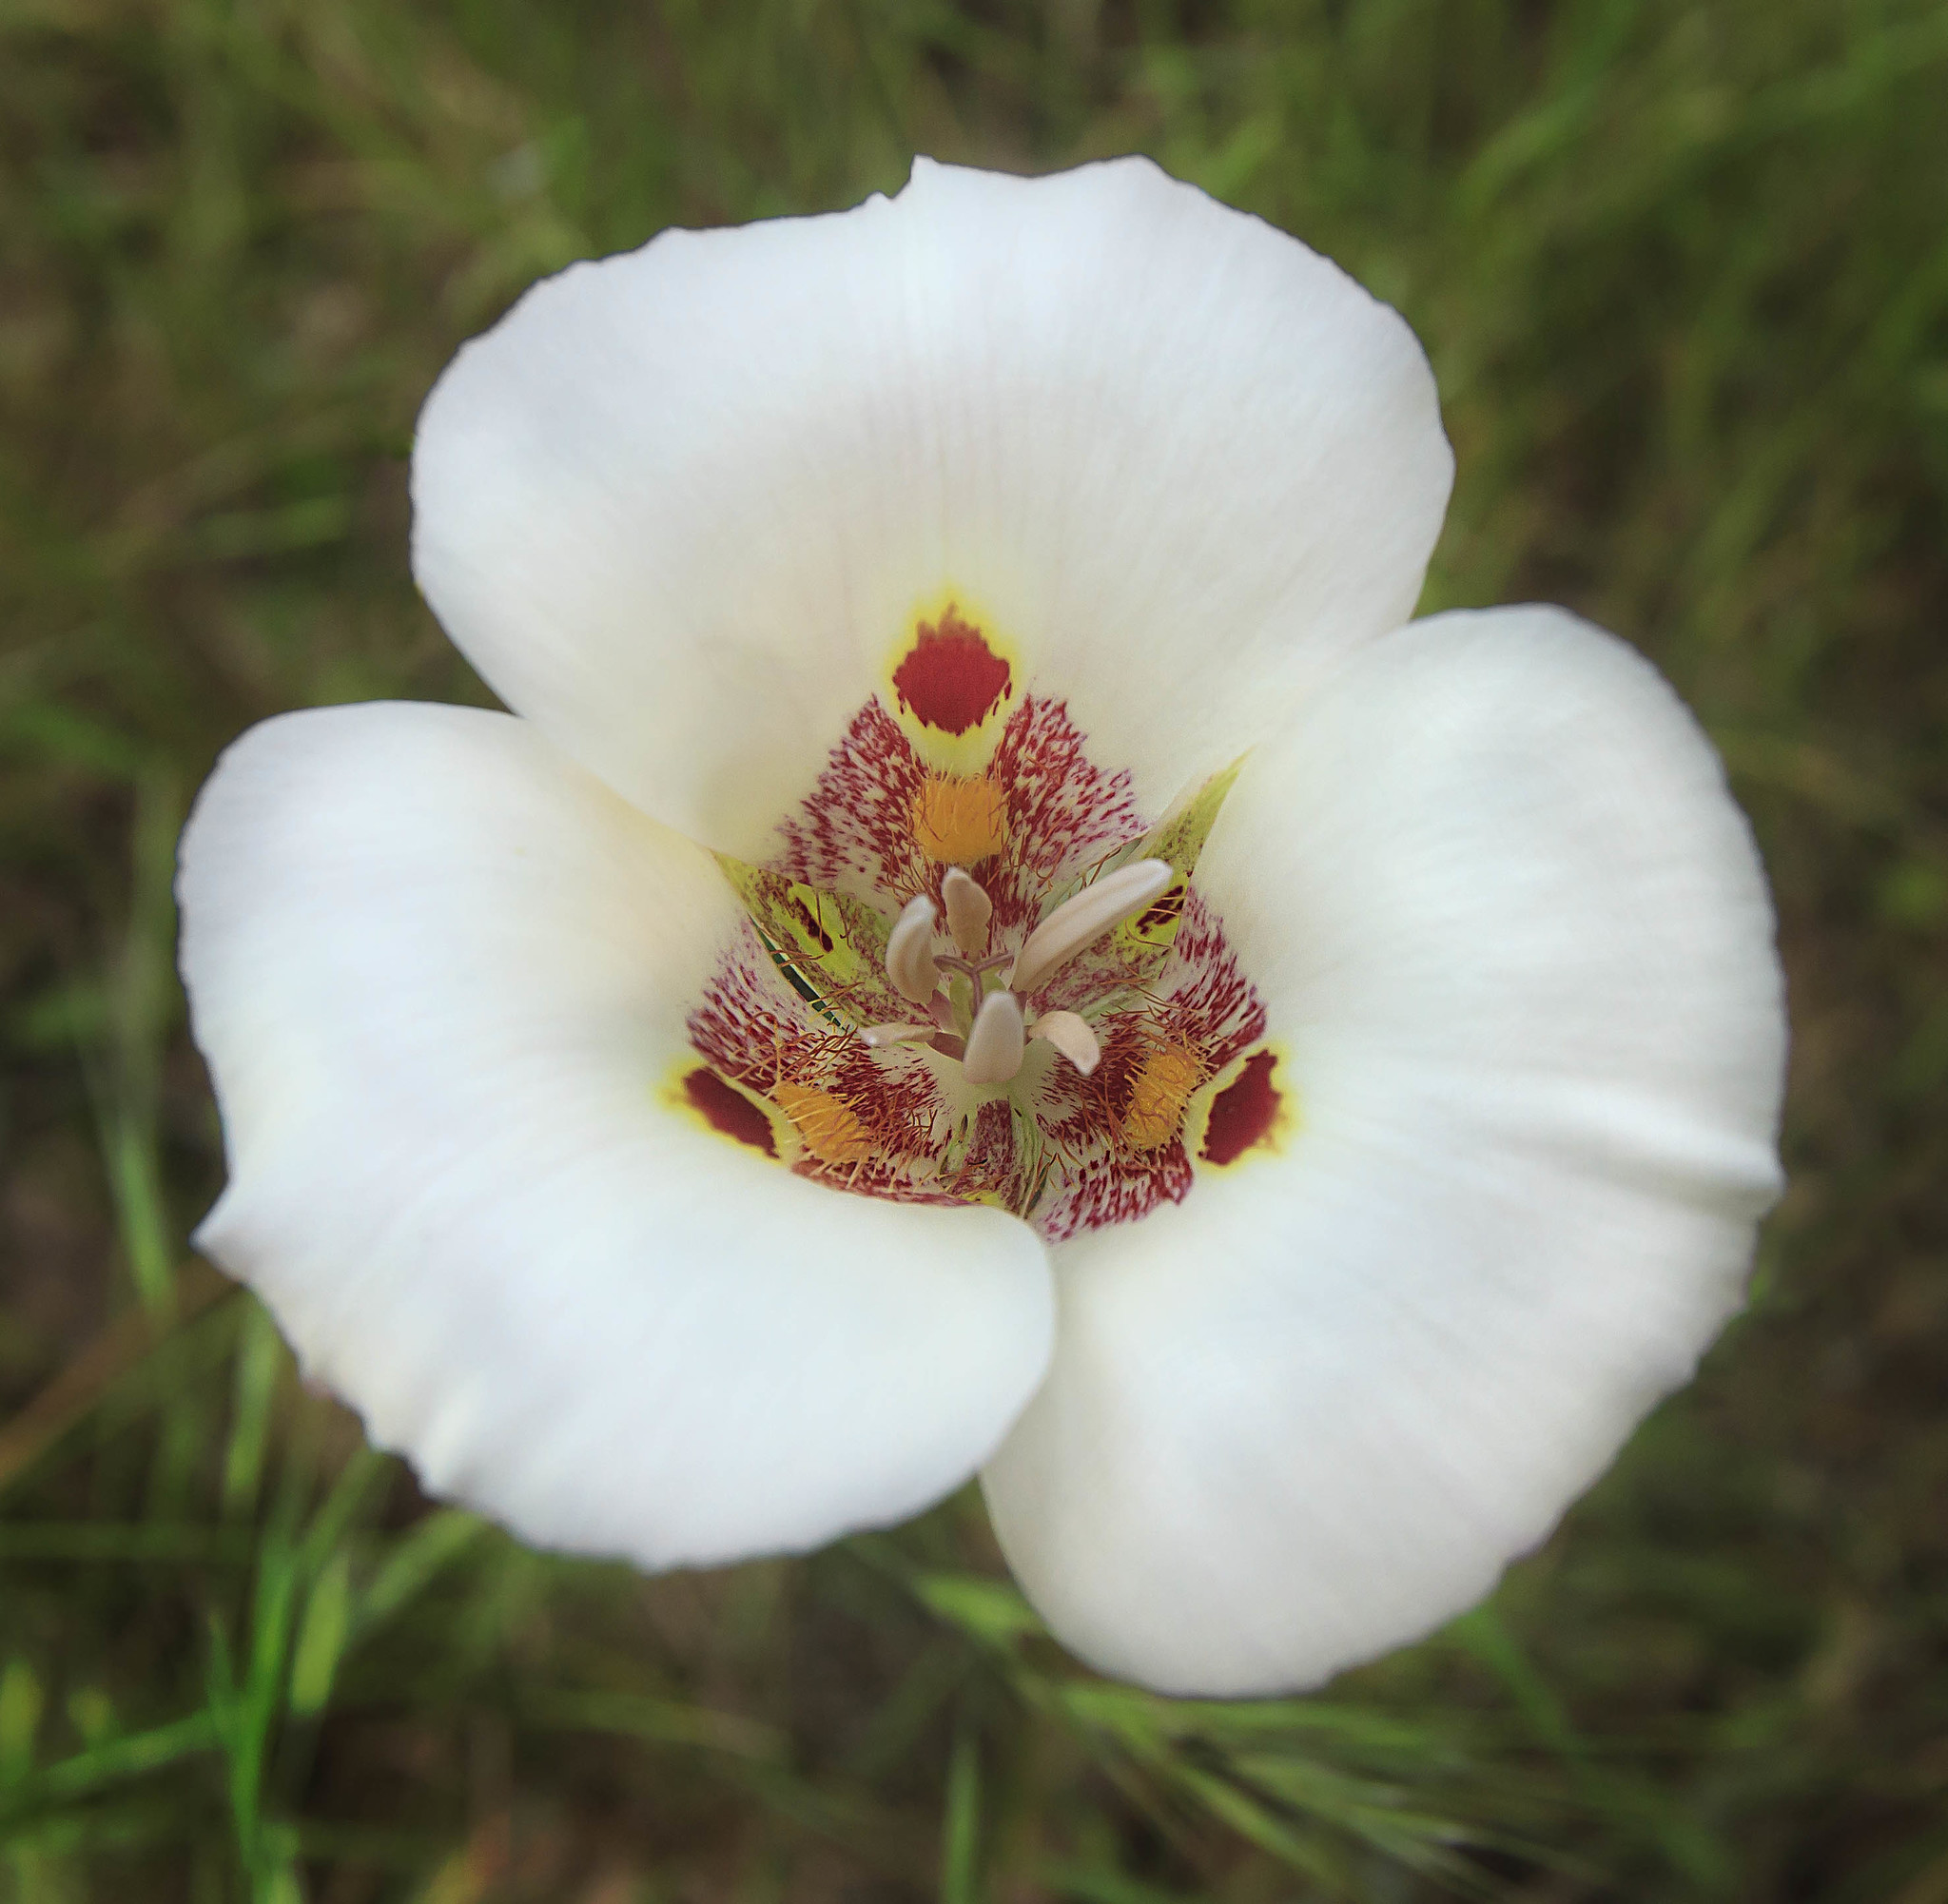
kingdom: Plantae
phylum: Tracheophyta
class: Liliopsida
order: Liliales
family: Liliaceae
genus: Calochortus
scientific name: Calochortus venustus
